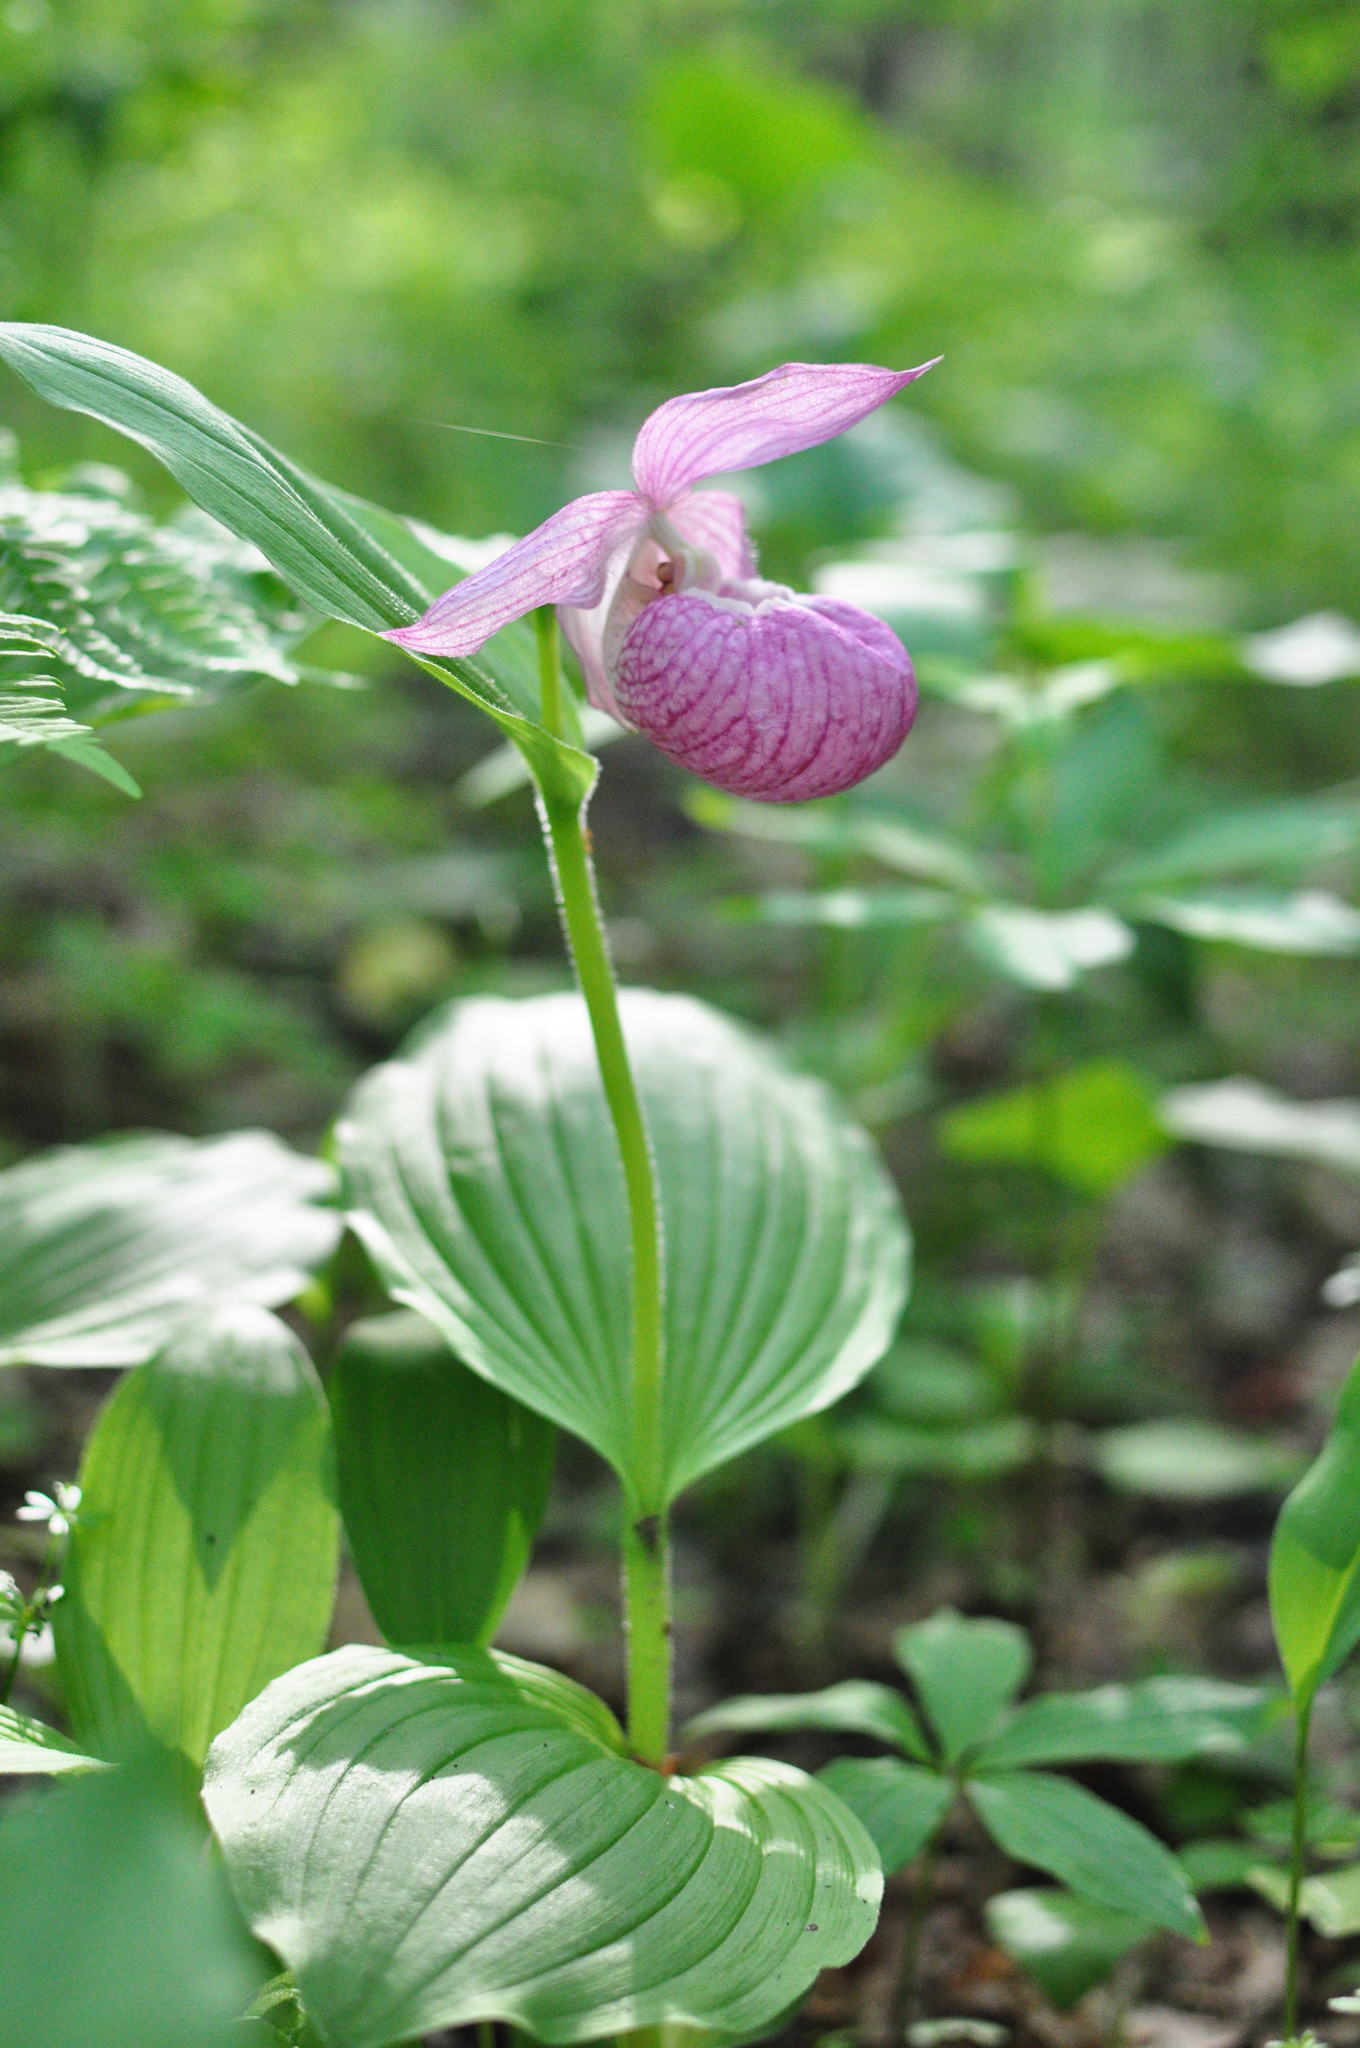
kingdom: Plantae
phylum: Tracheophyta
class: Liliopsida
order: Asparagales
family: Orchidaceae
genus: Cypripedium
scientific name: Cypripedium macranthos
